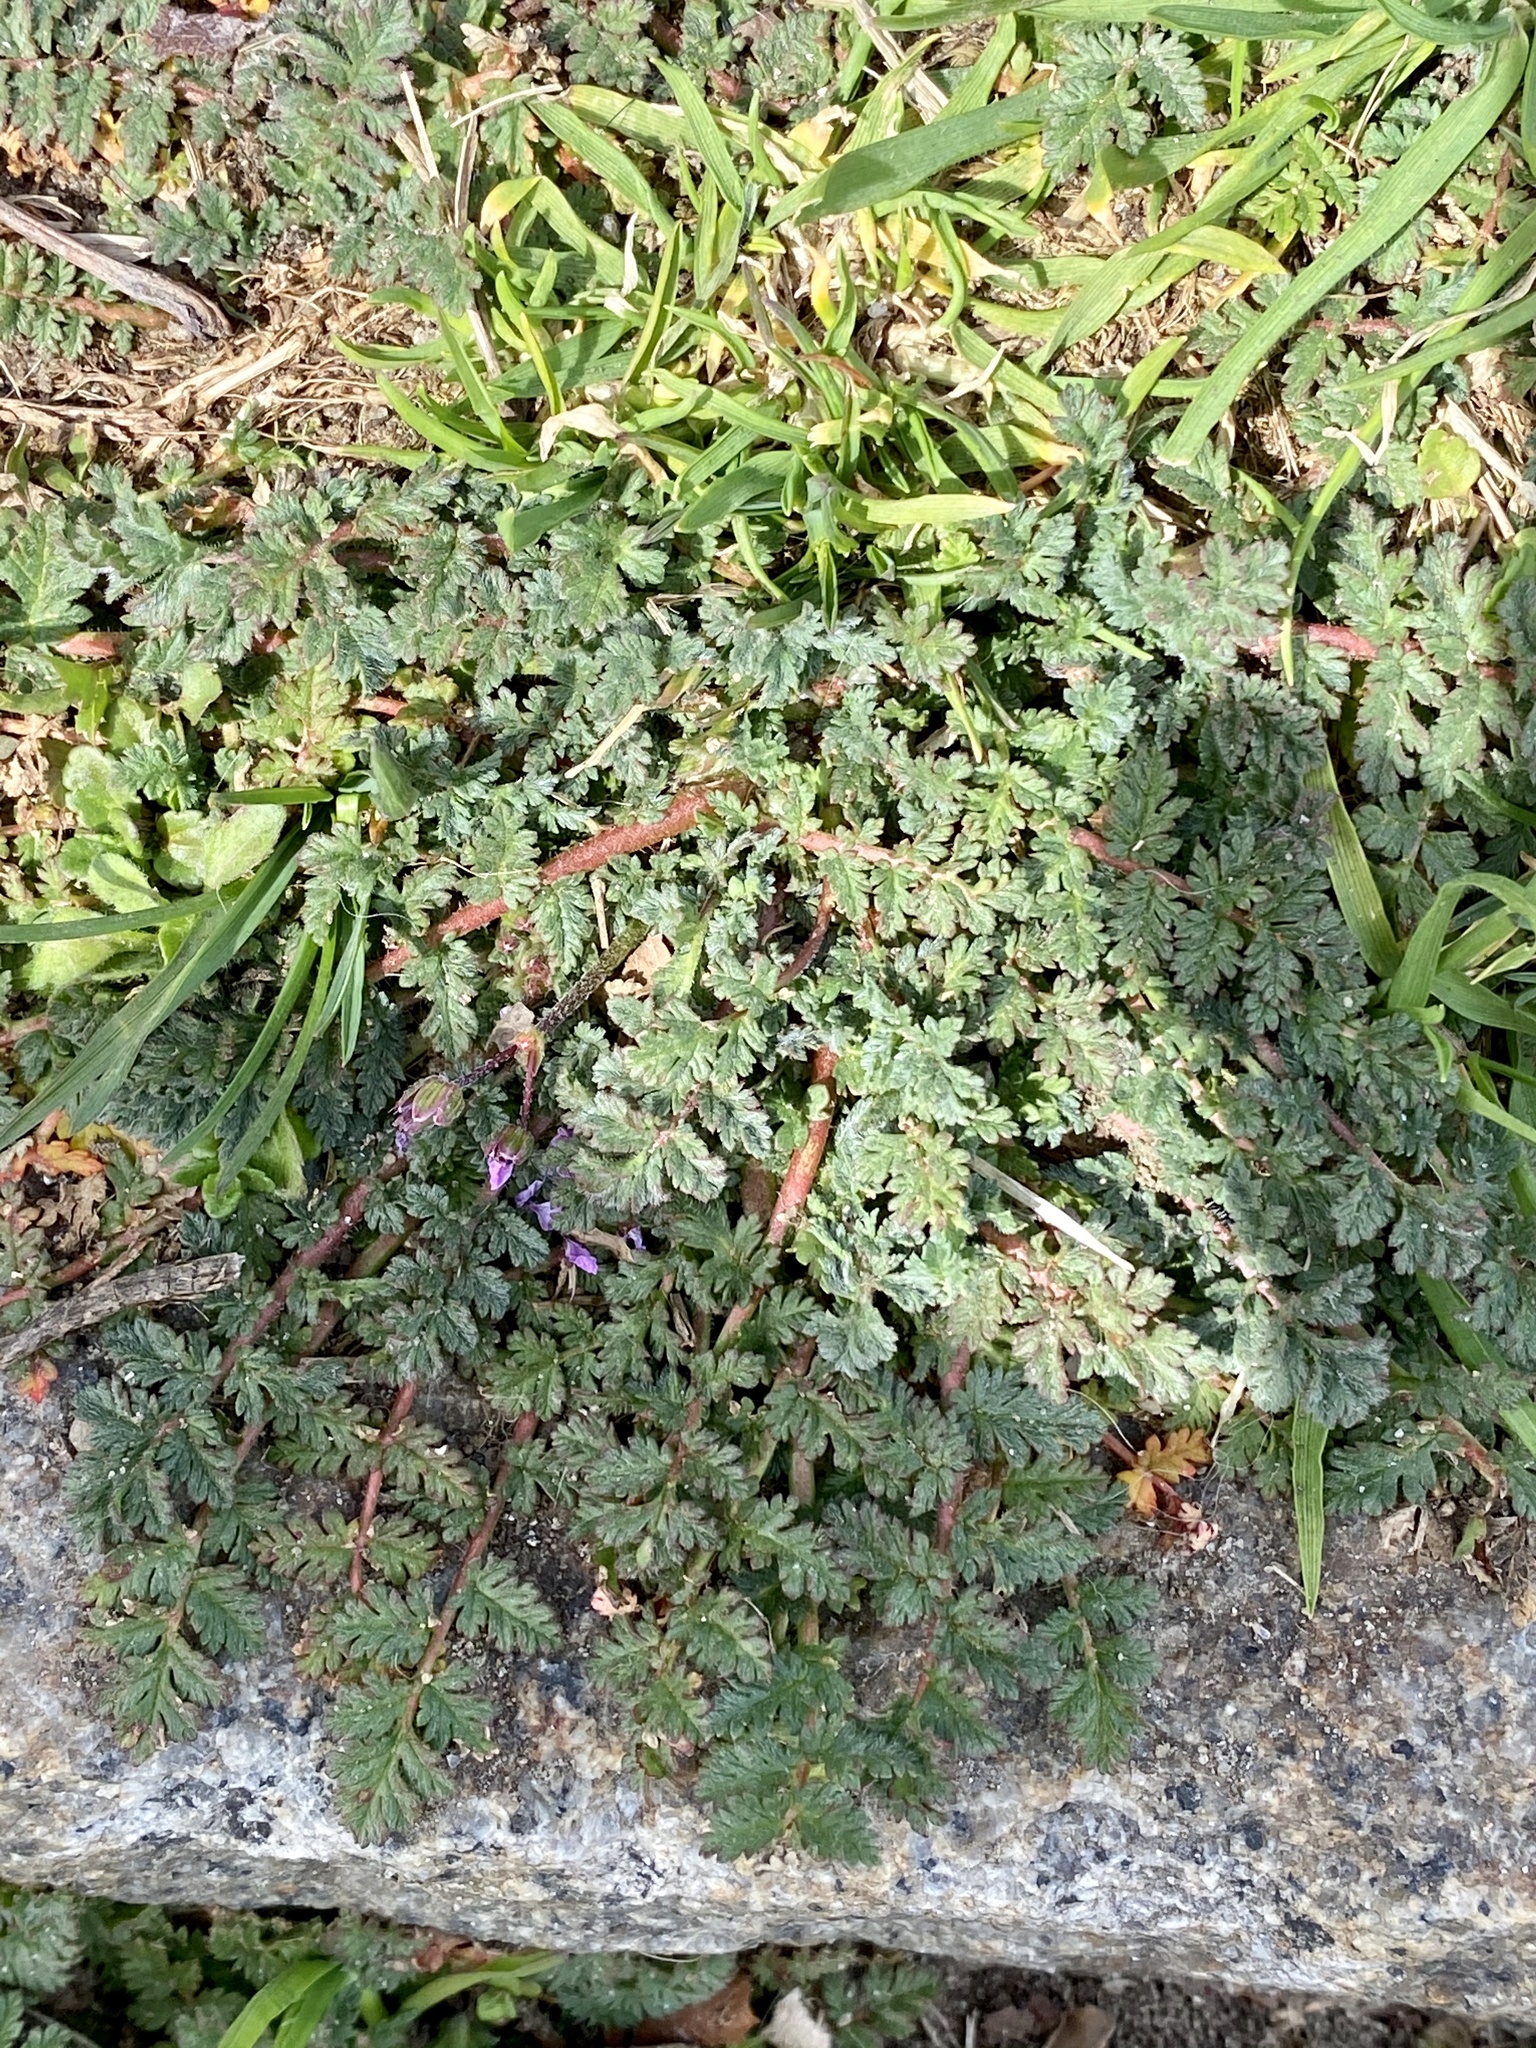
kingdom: Plantae
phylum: Tracheophyta
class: Magnoliopsida
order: Geraniales
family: Geraniaceae
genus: Erodium
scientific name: Erodium cicutarium
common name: Common stork's-bill
